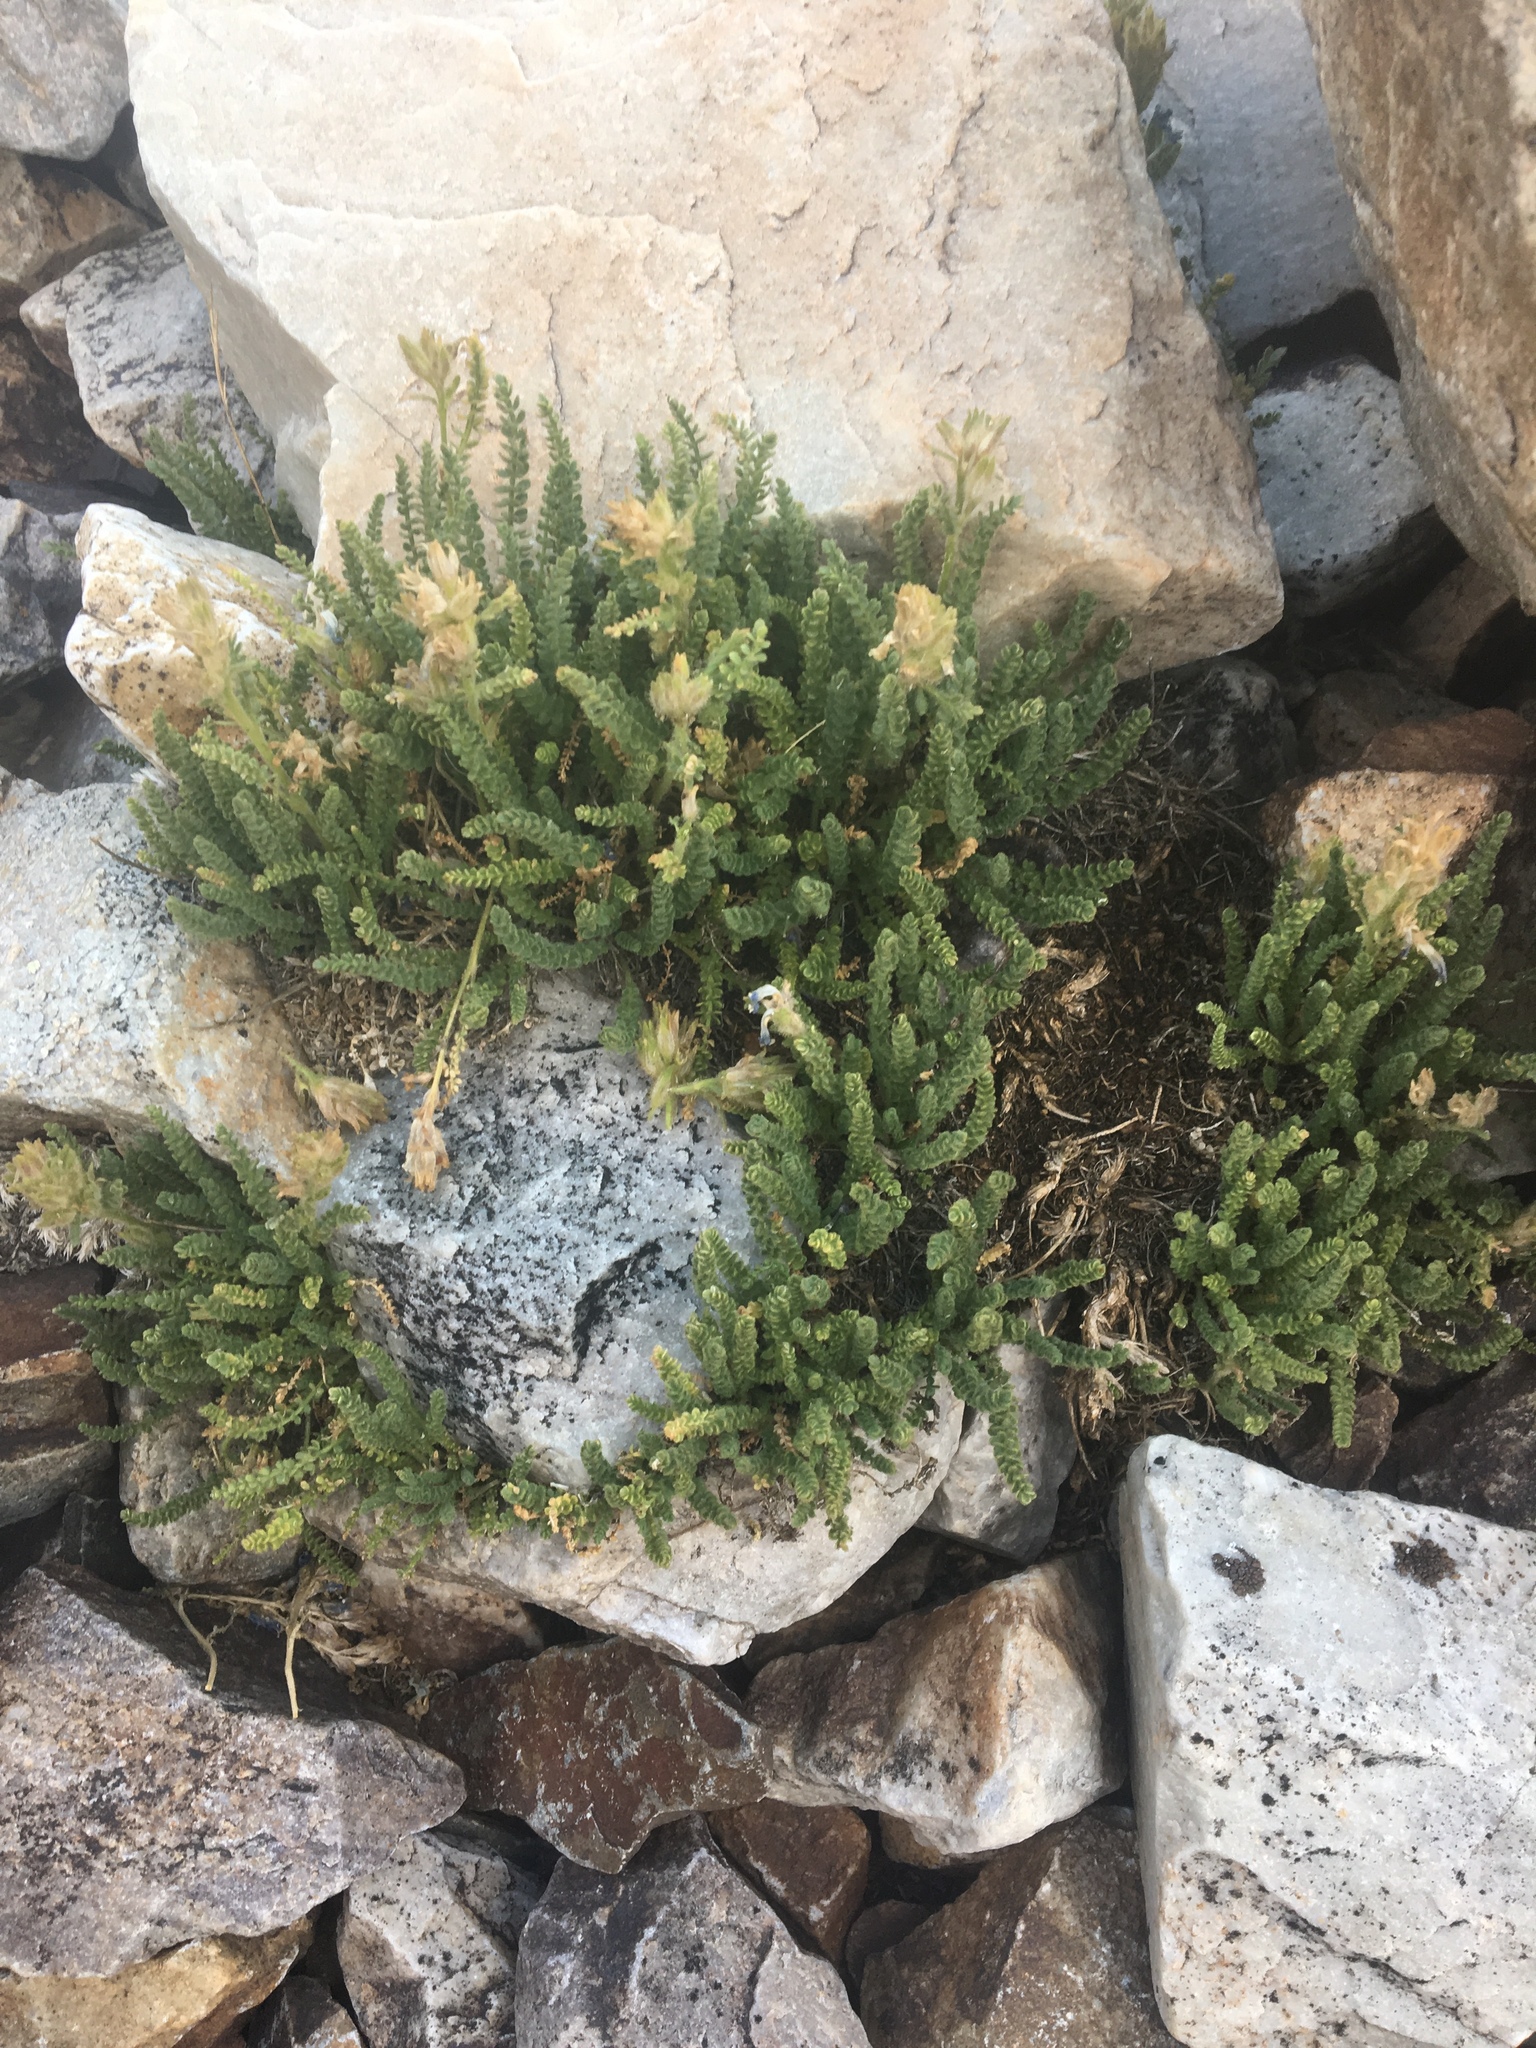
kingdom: Plantae
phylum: Tracheophyta
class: Magnoliopsida
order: Ericales
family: Polemoniaceae
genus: Polemonium
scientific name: Polemonium viscosum
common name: Skunk jacob's-ladder
